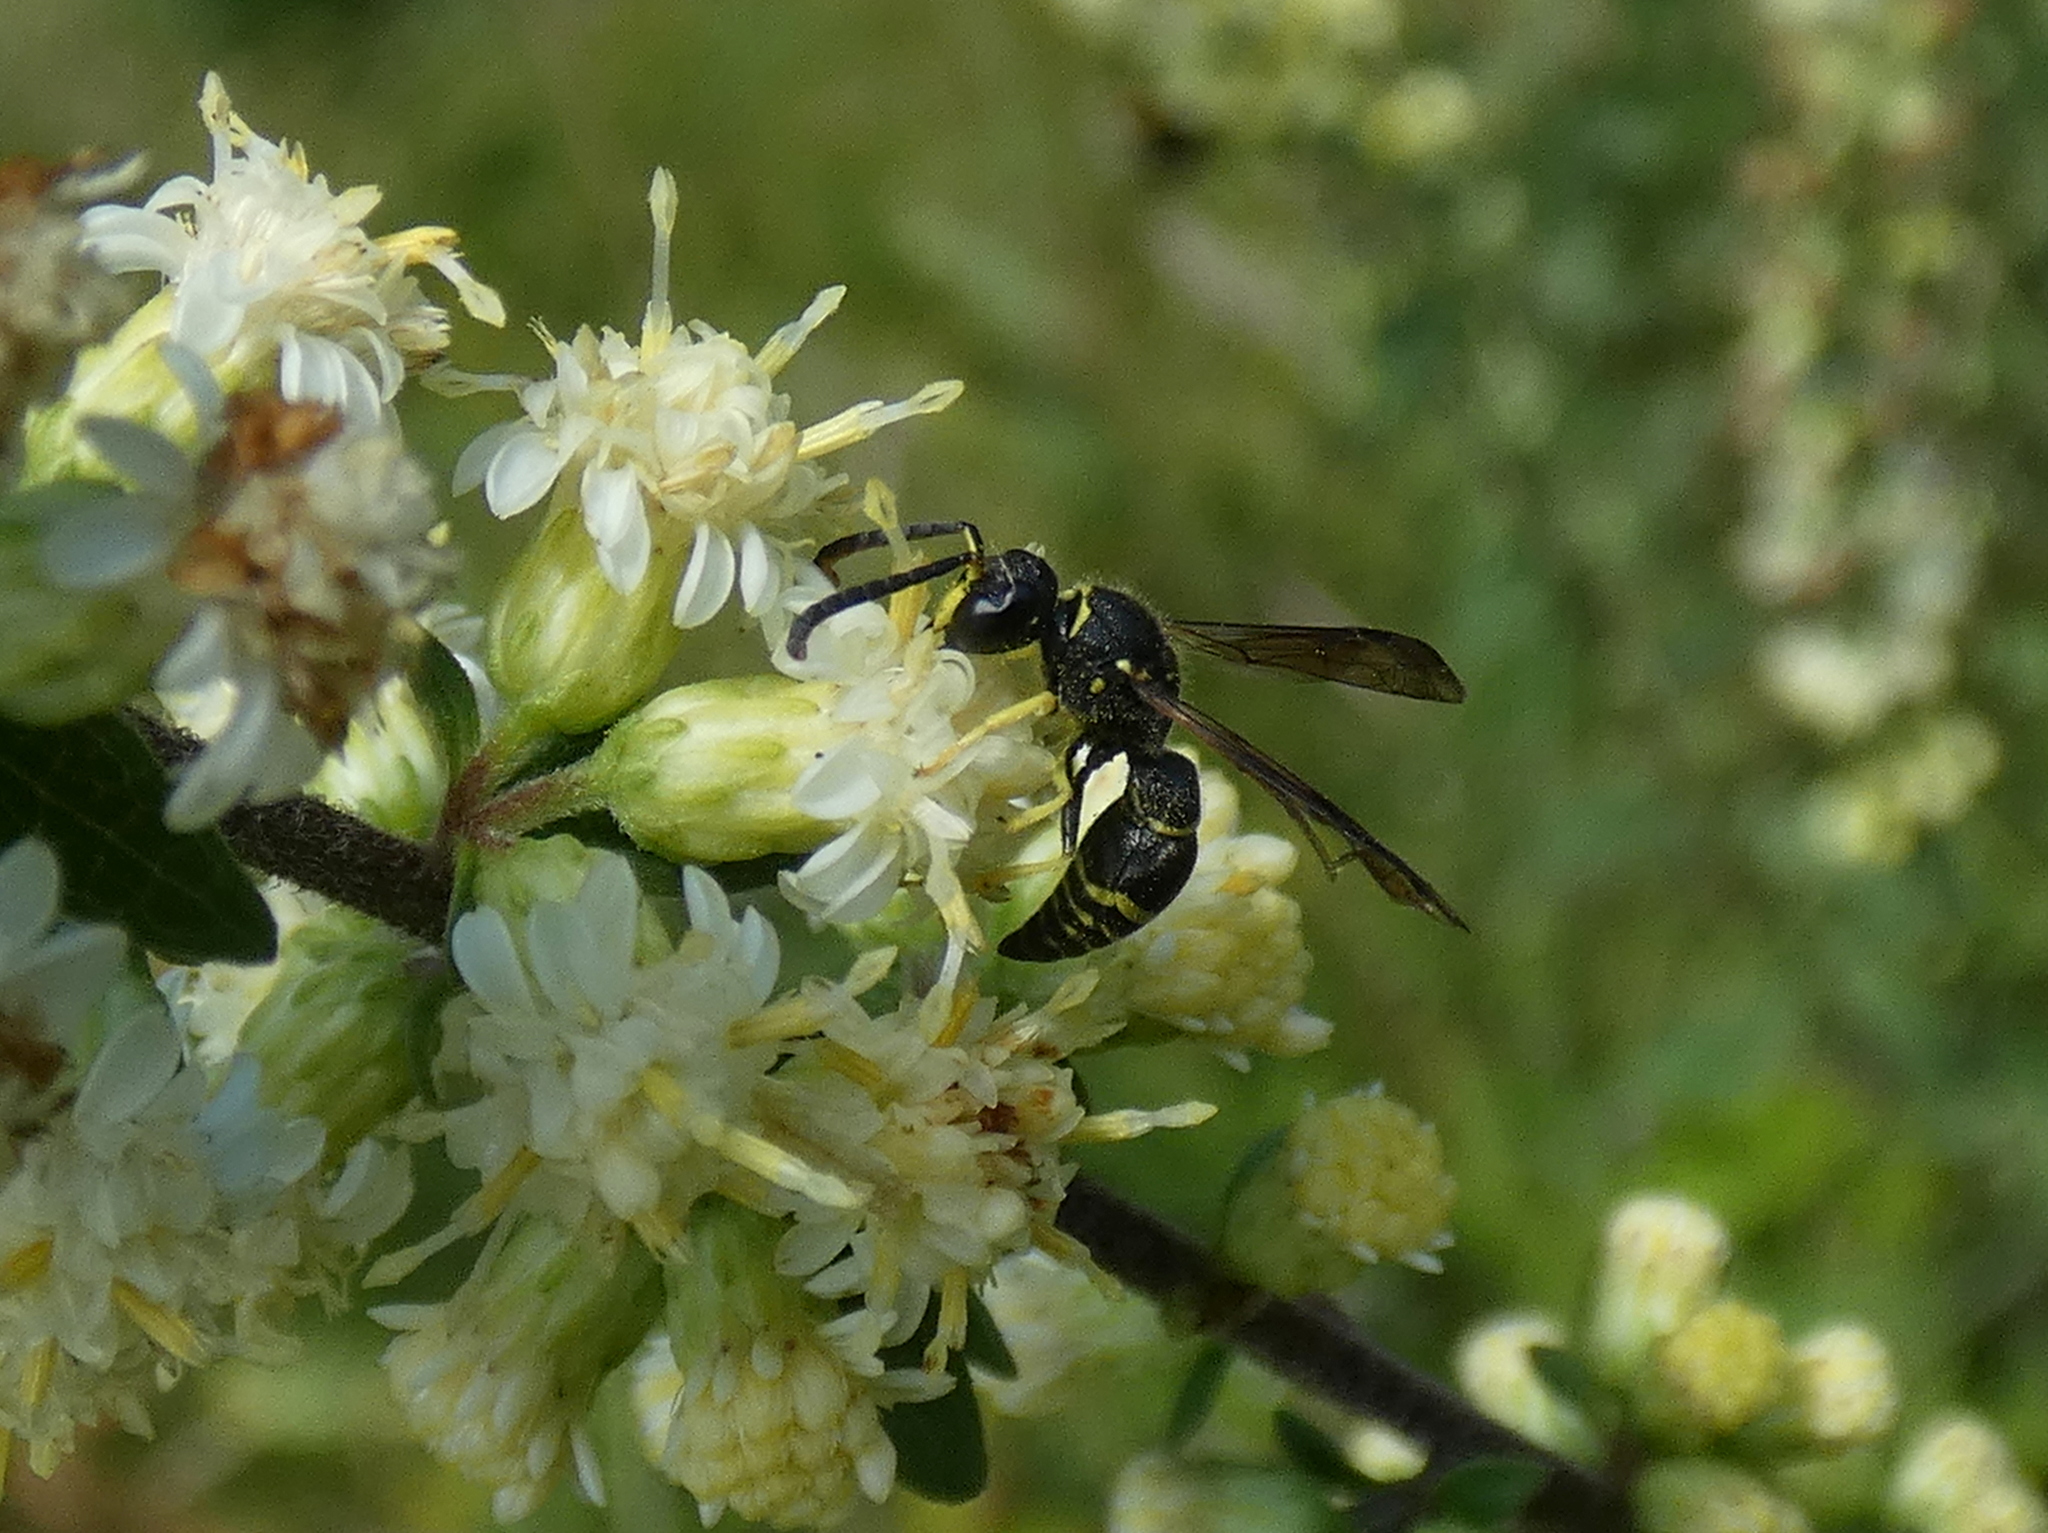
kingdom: Animalia
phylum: Arthropoda
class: Insecta
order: Hymenoptera
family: Vespidae
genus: Ancistrocerus
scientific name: Ancistrocerus
